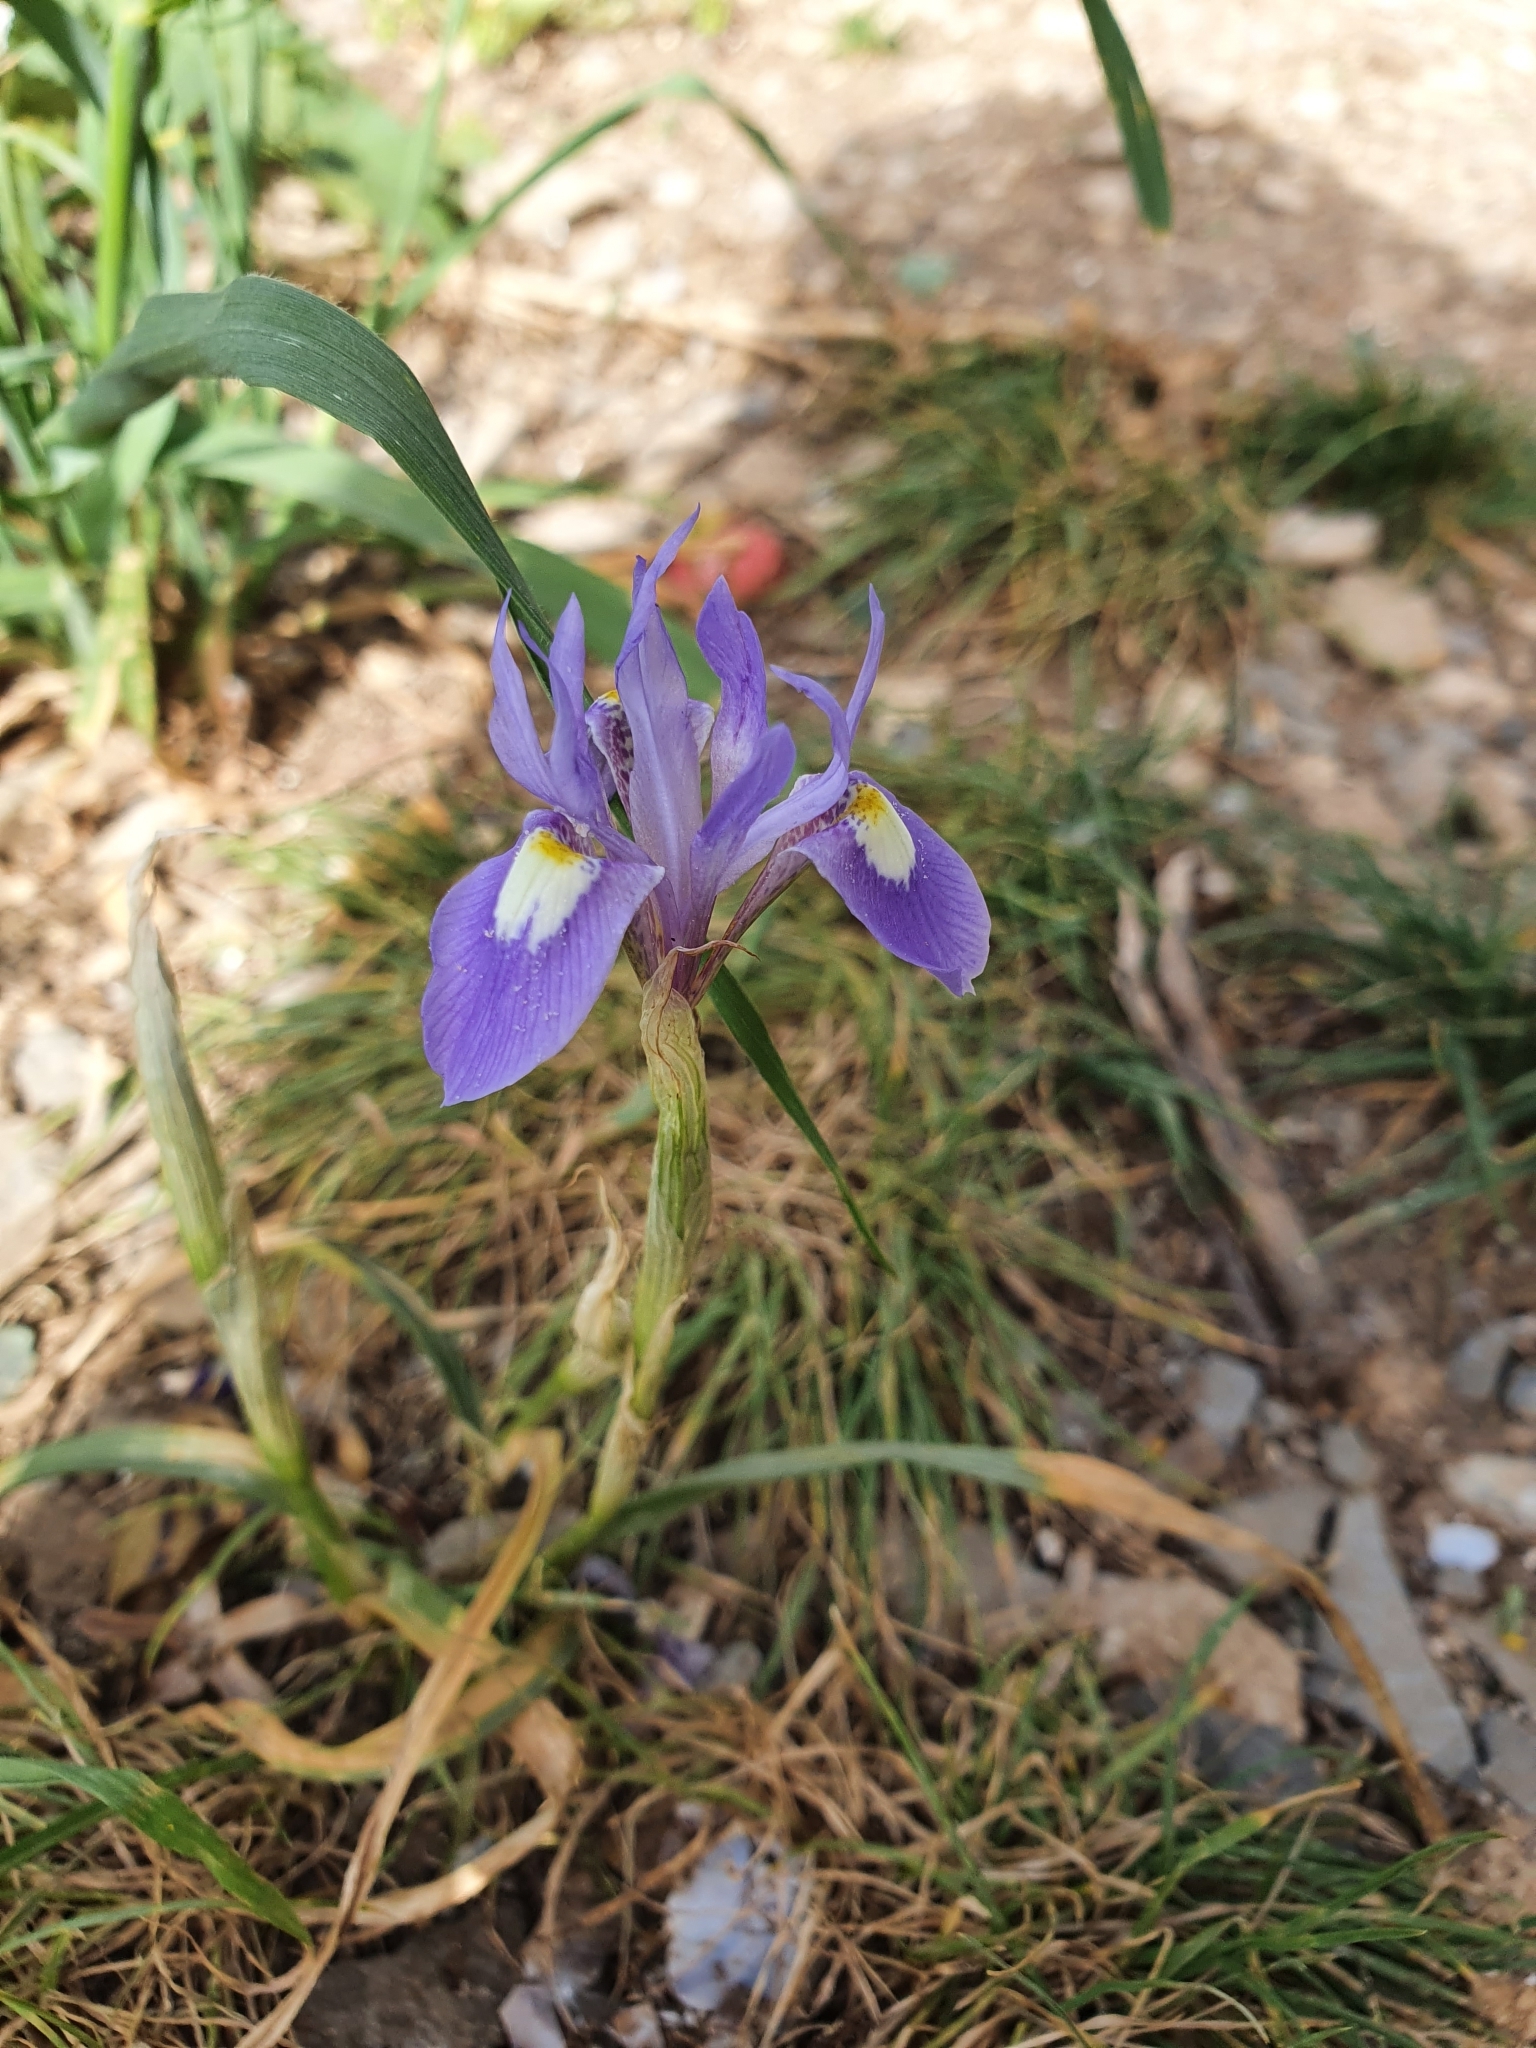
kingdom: Plantae
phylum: Tracheophyta
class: Liliopsida
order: Asparagales
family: Iridaceae
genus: Moraea
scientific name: Moraea sisyrinchium
